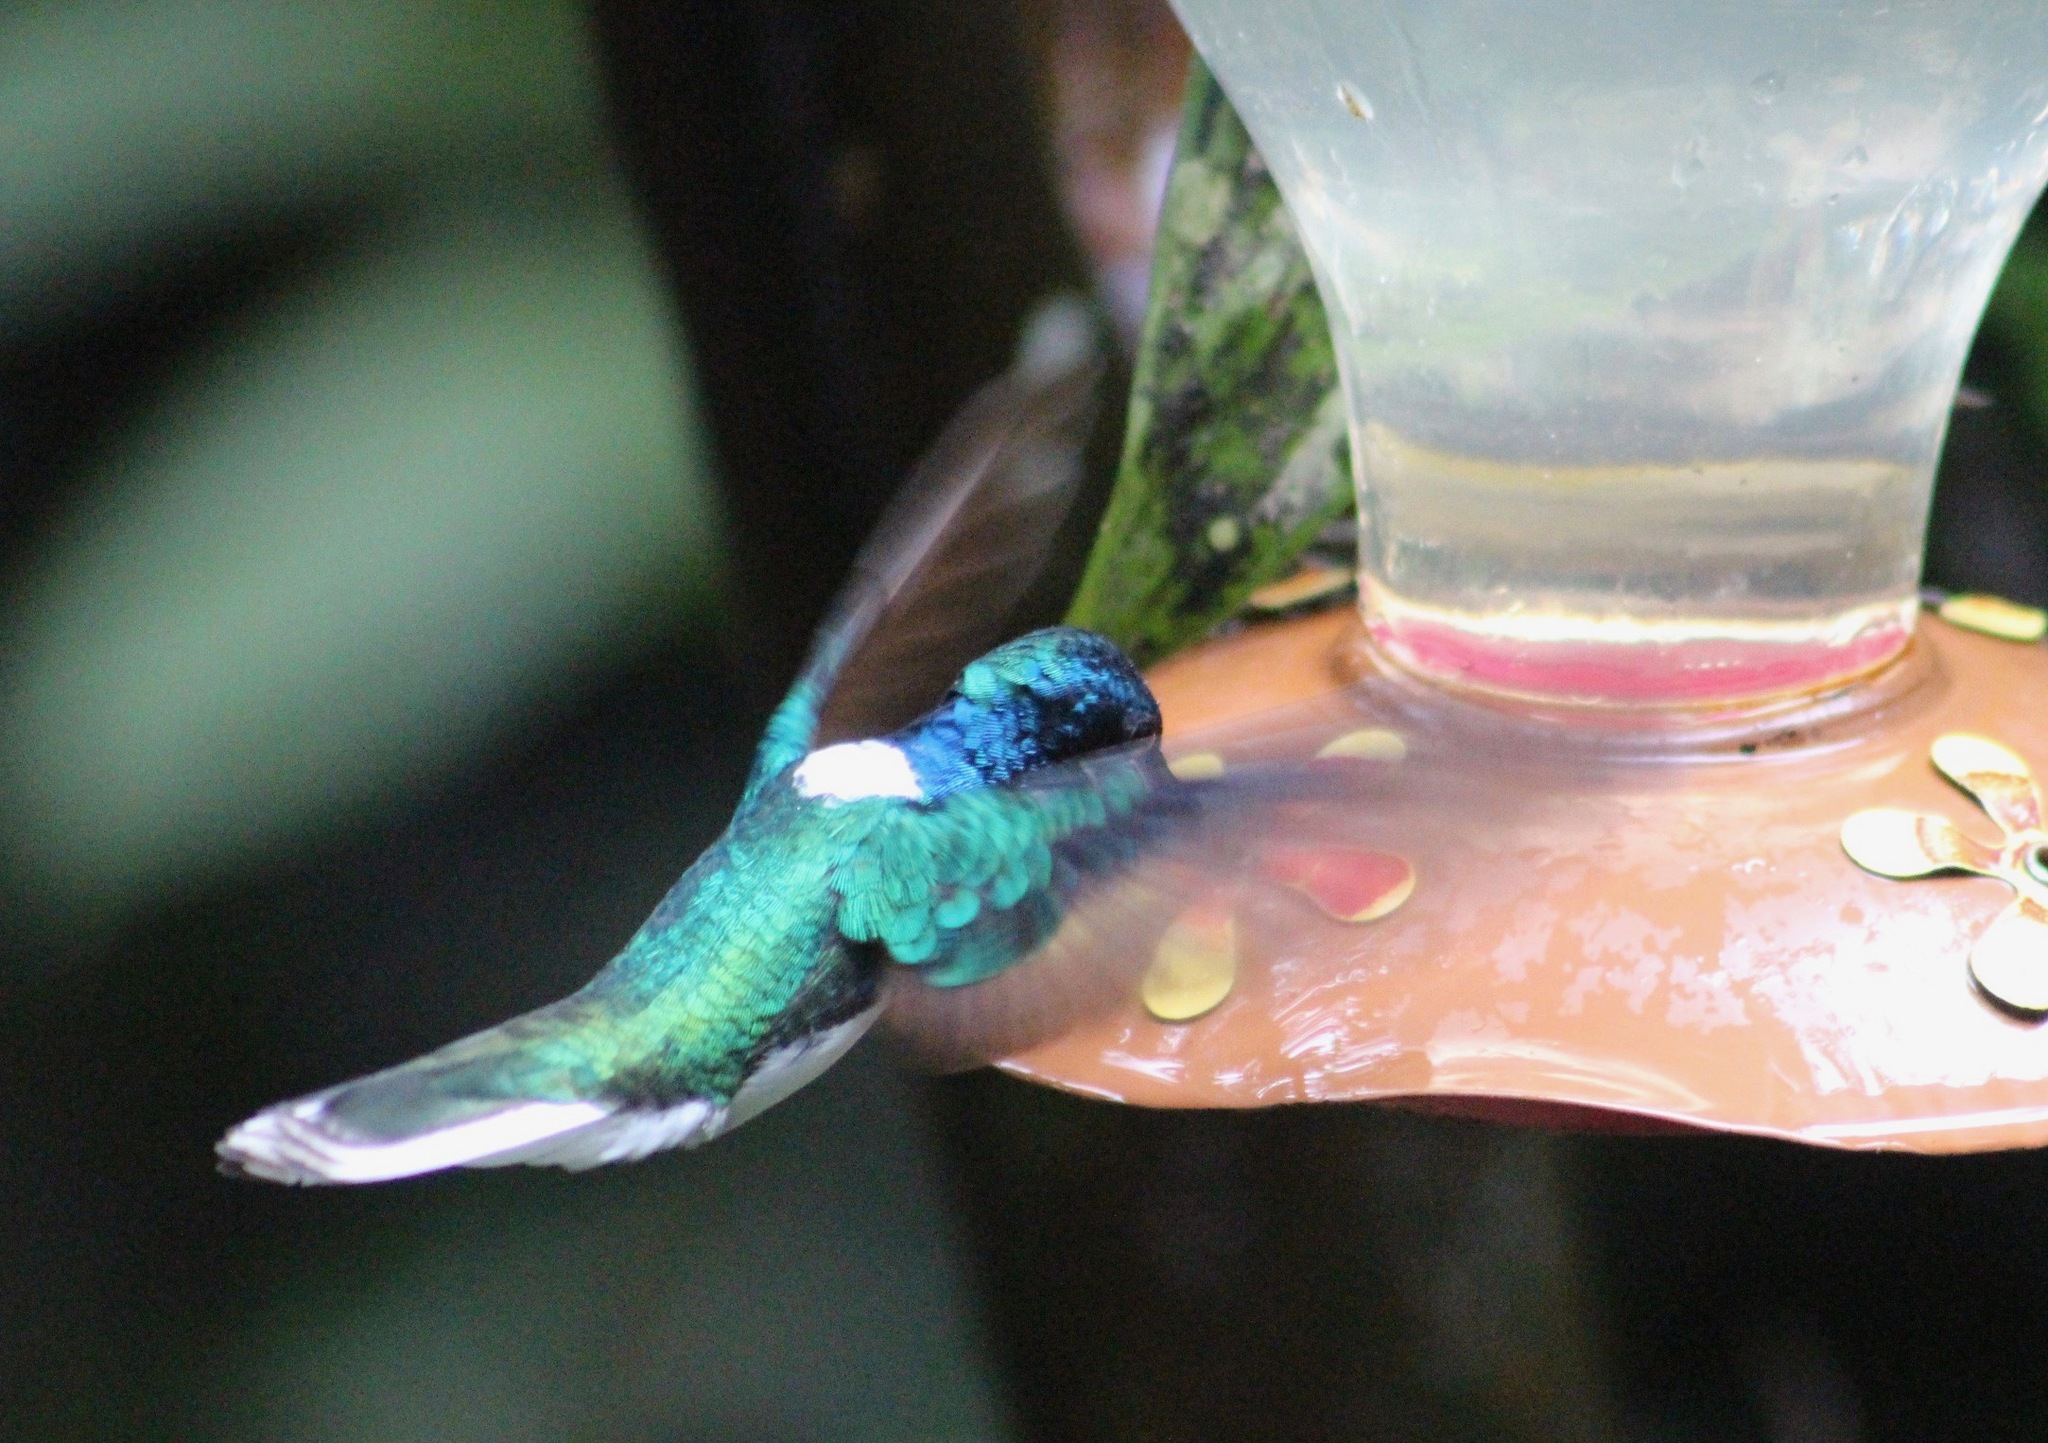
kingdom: Animalia
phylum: Chordata
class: Aves
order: Apodiformes
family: Trochilidae
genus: Florisuga
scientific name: Florisuga mellivora
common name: White-necked jacobin
